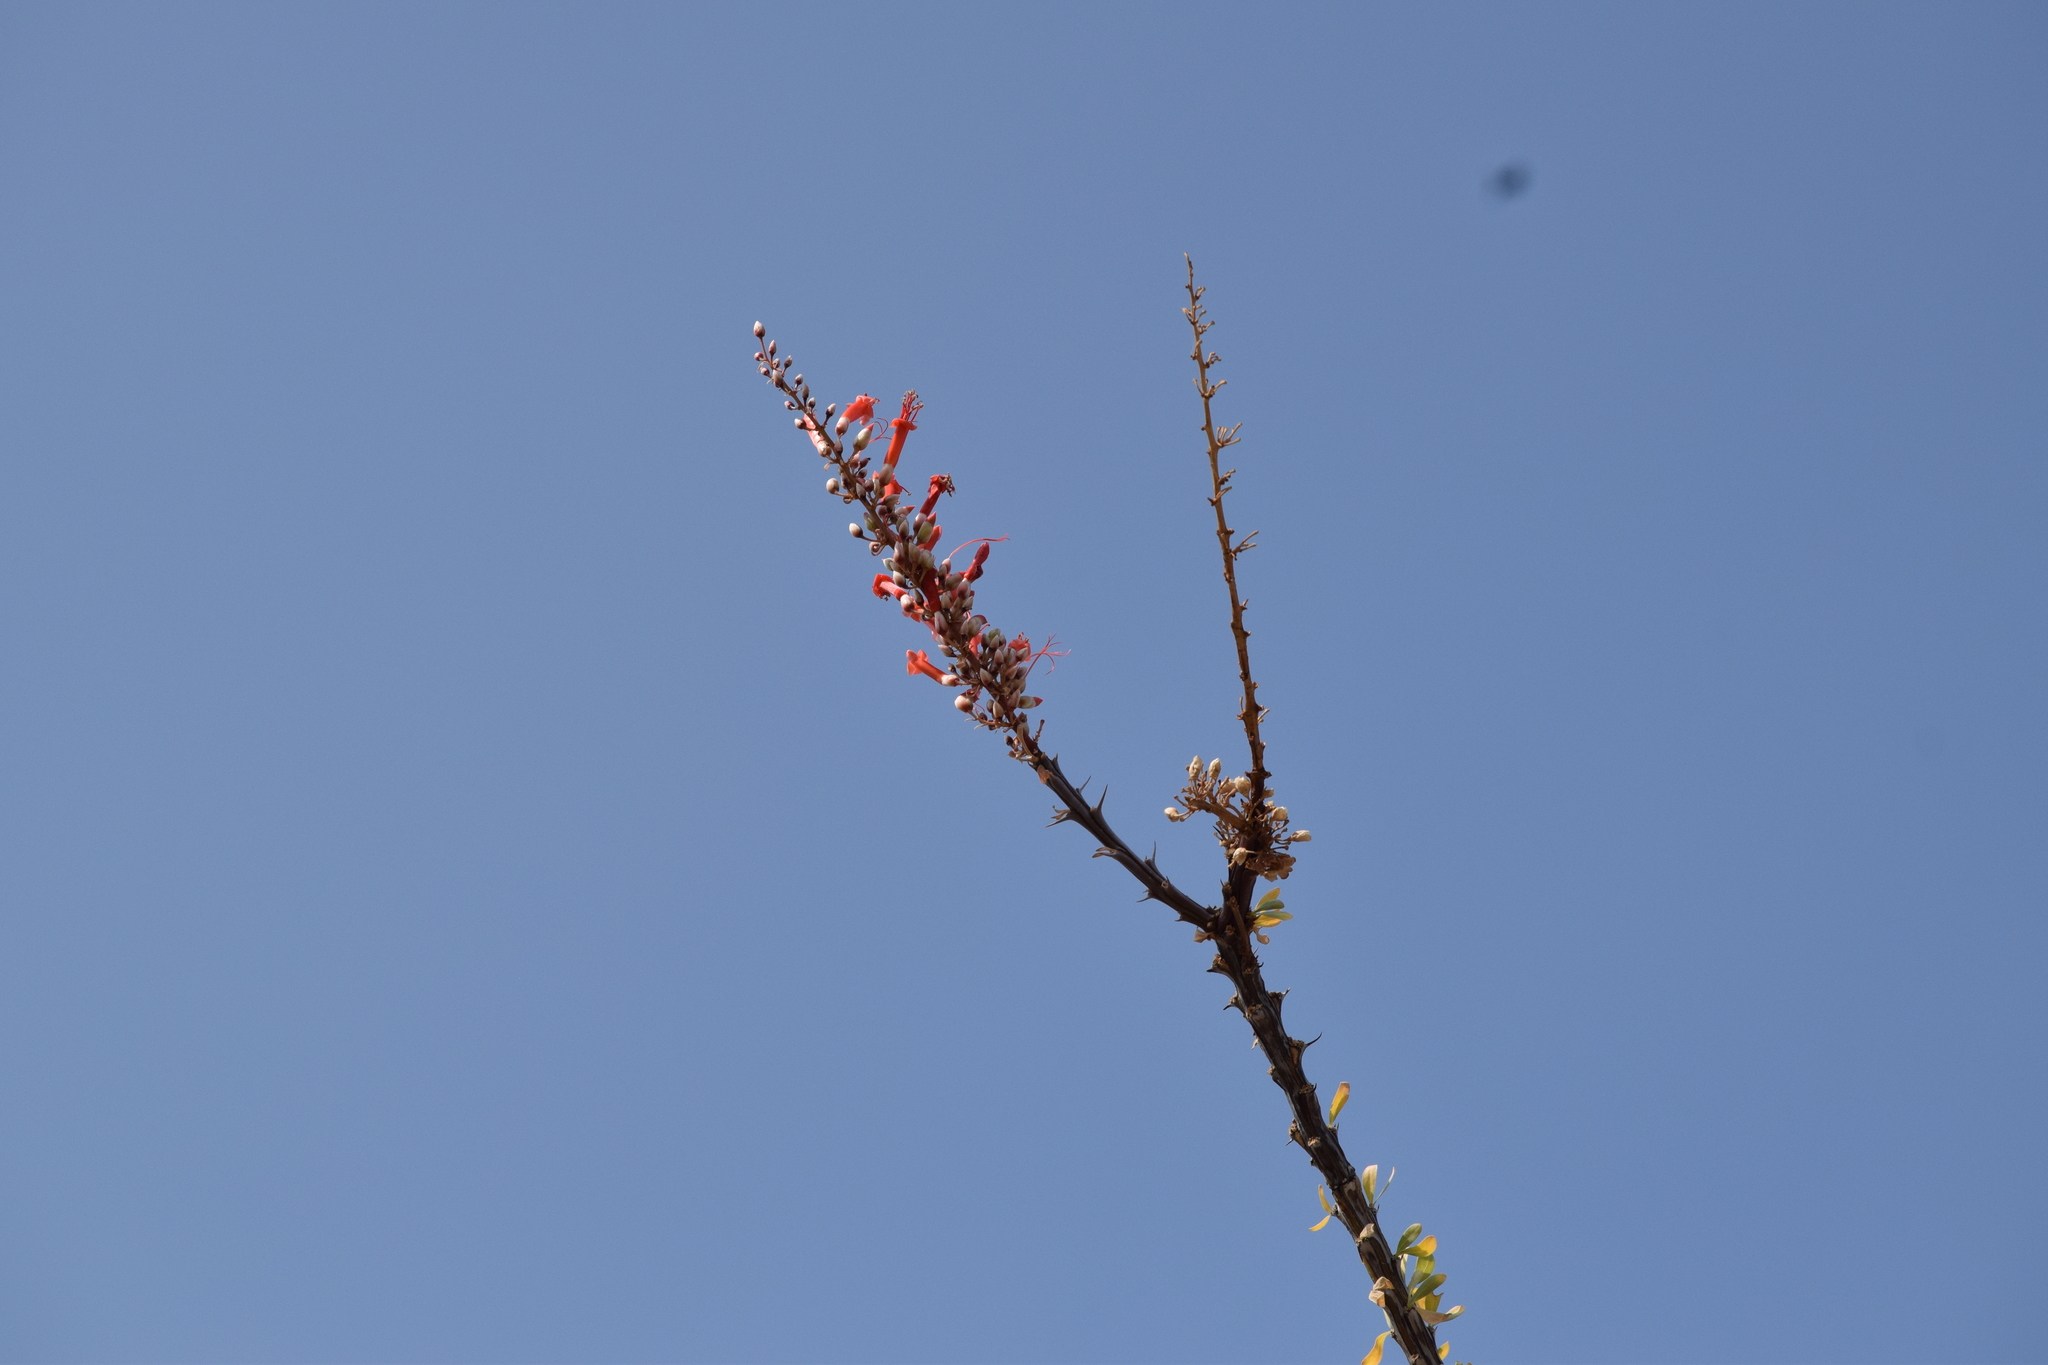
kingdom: Plantae
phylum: Tracheophyta
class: Magnoliopsida
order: Ericales
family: Fouquieriaceae
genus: Fouquieria
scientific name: Fouquieria splendens
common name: Vine-cactus
